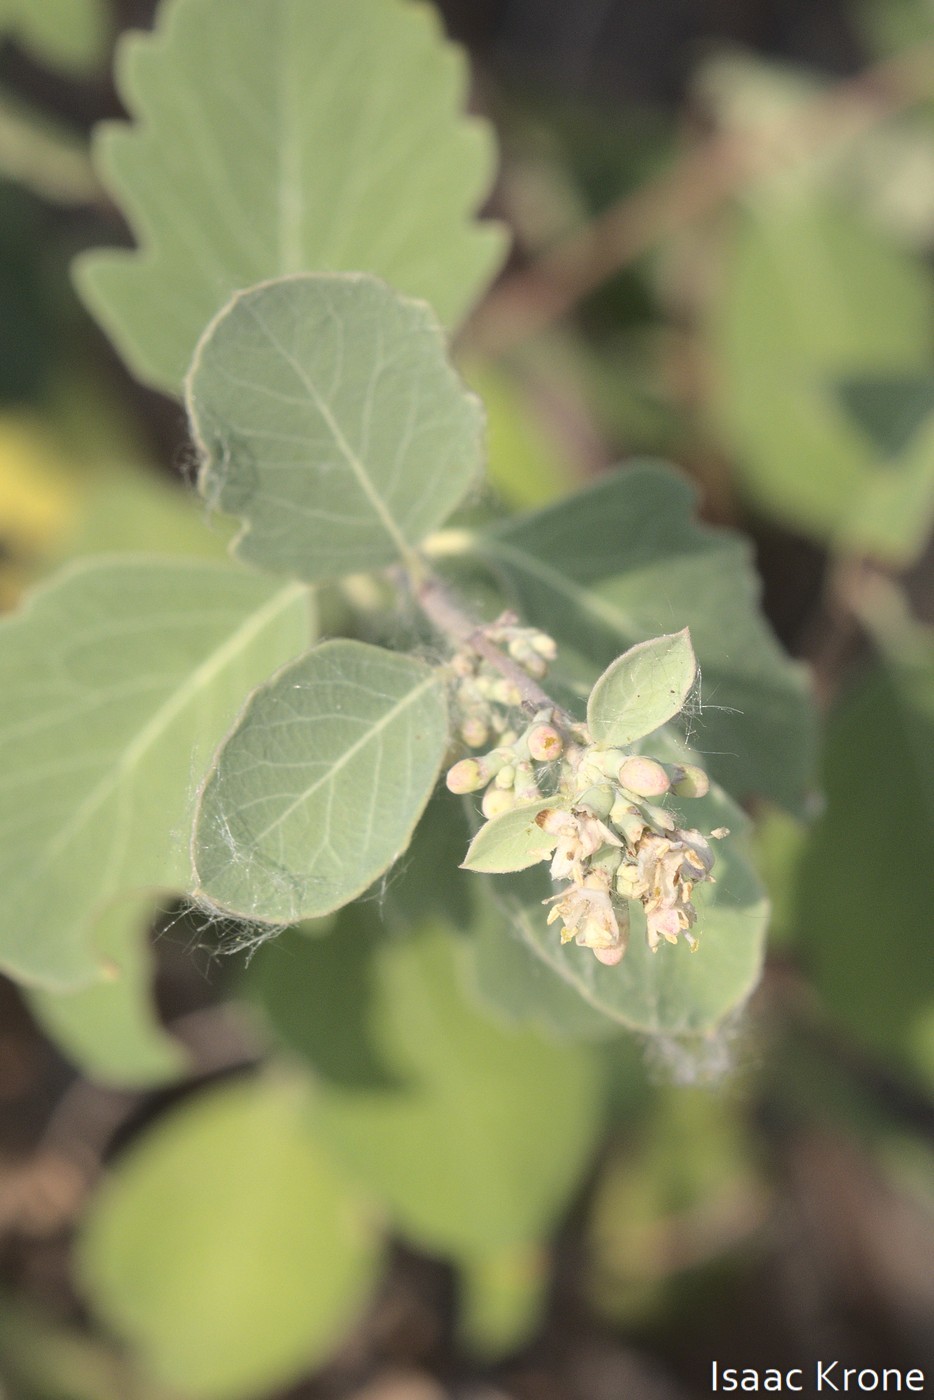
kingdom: Plantae
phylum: Tracheophyta
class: Magnoliopsida
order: Dipsacales
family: Caprifoliaceae
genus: Symphoricarpos
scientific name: Symphoricarpos occidentalis
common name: Wolfberry
